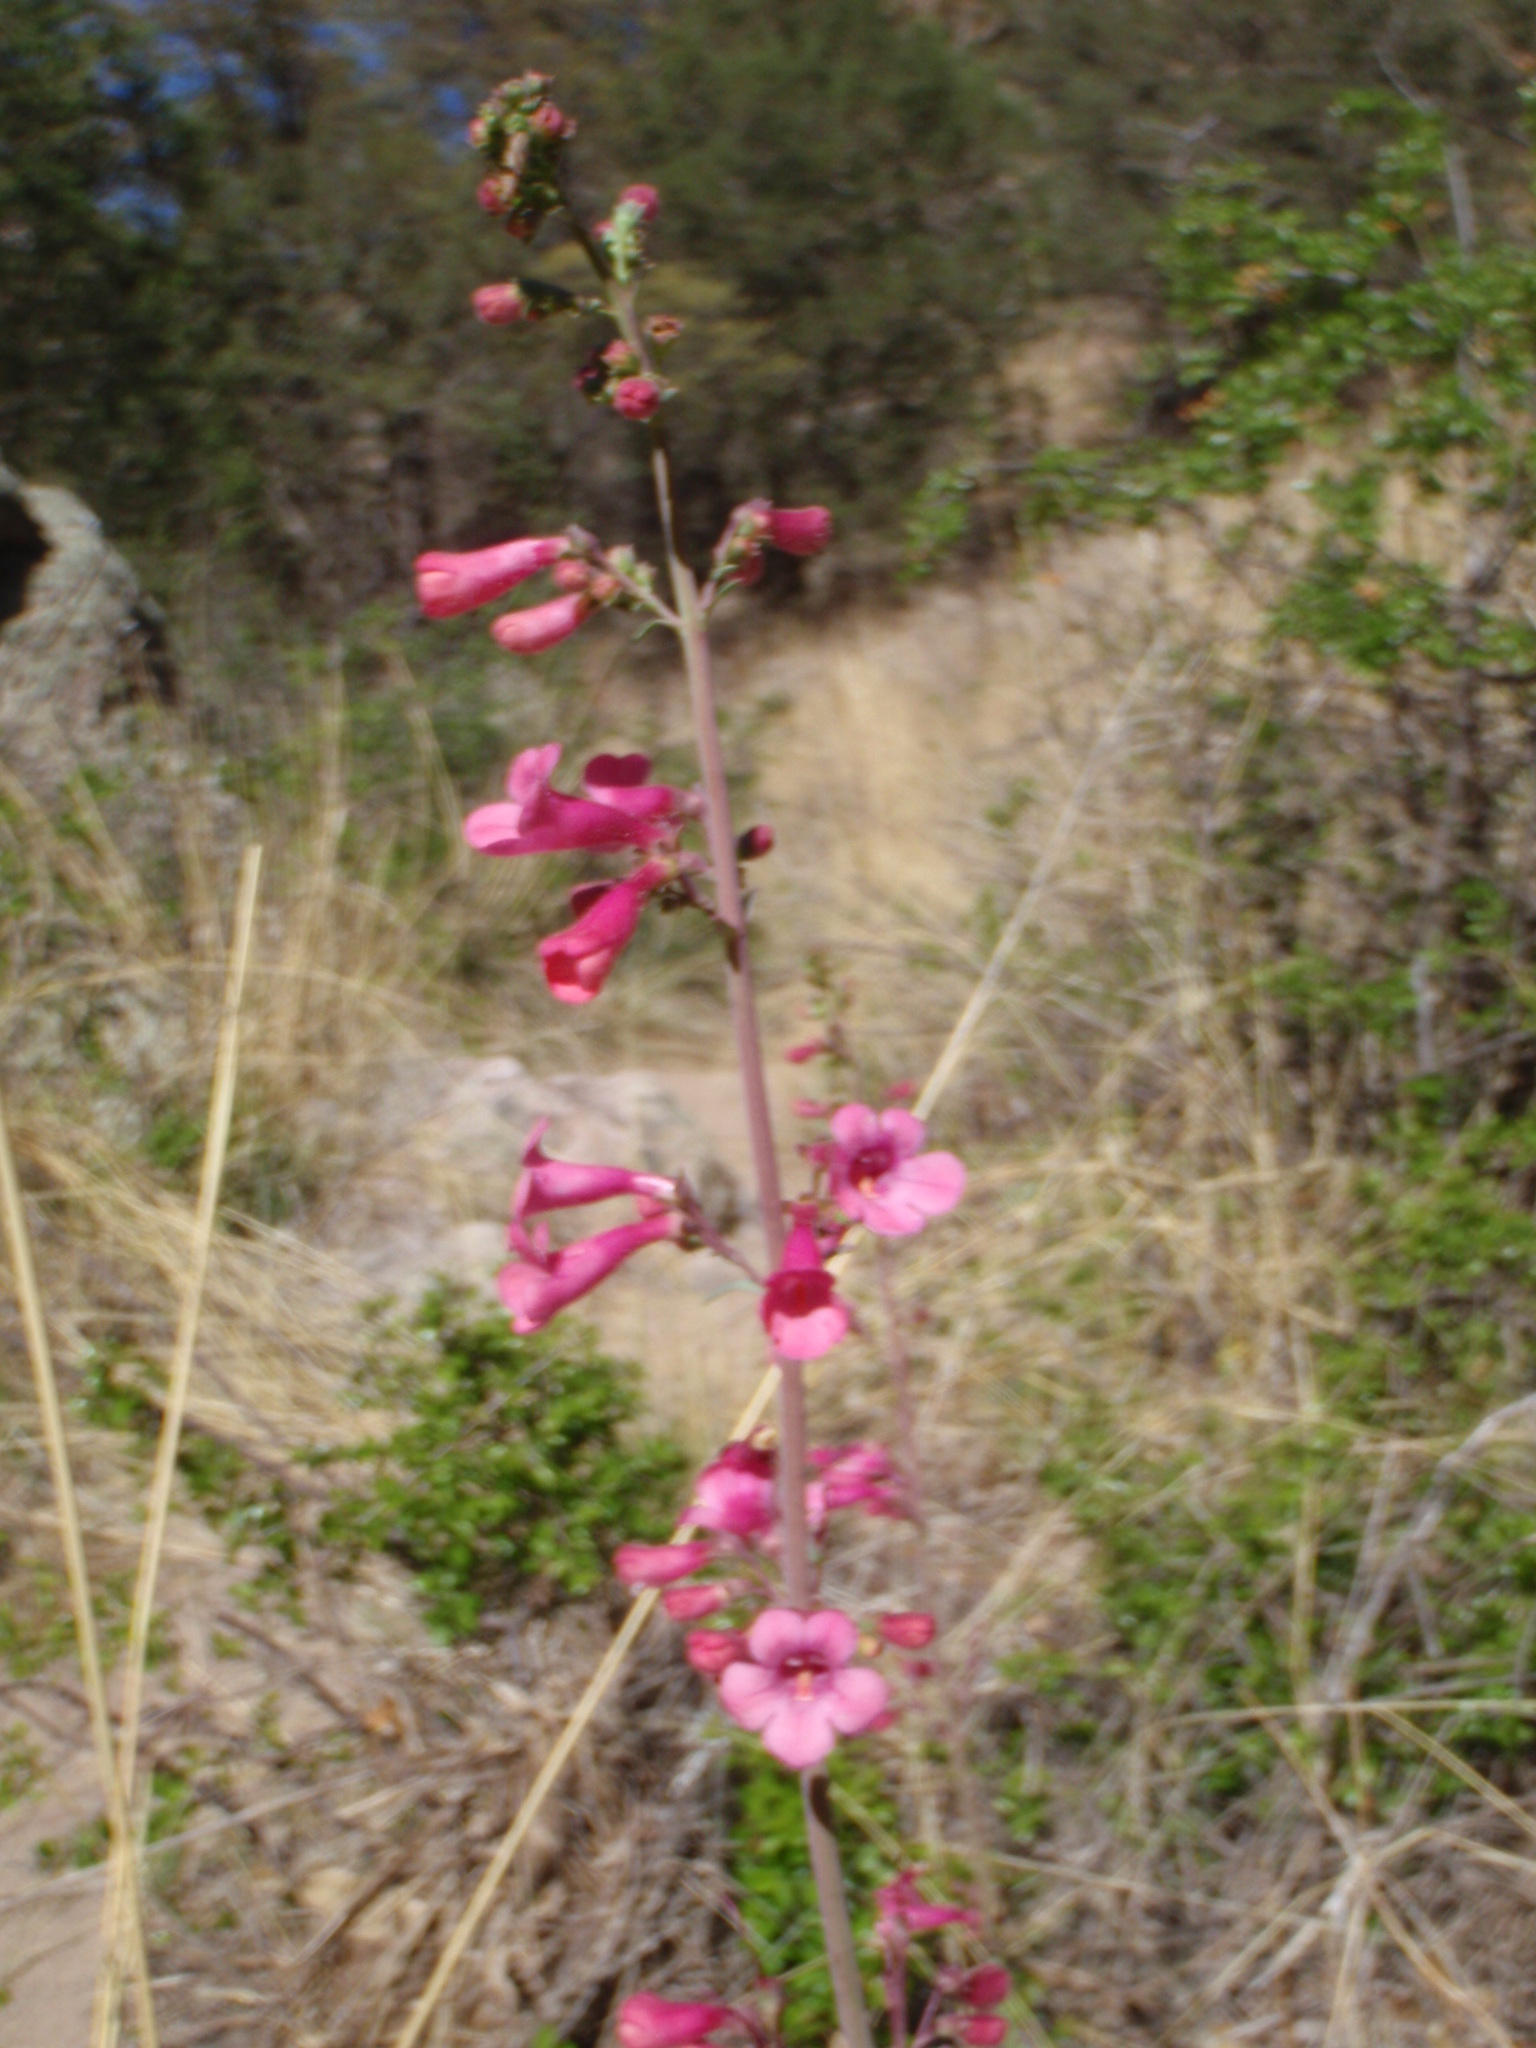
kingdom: Plantae
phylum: Tracheophyta
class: Magnoliopsida
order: Lamiales
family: Plantaginaceae
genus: Penstemon
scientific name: Penstemon parryi
